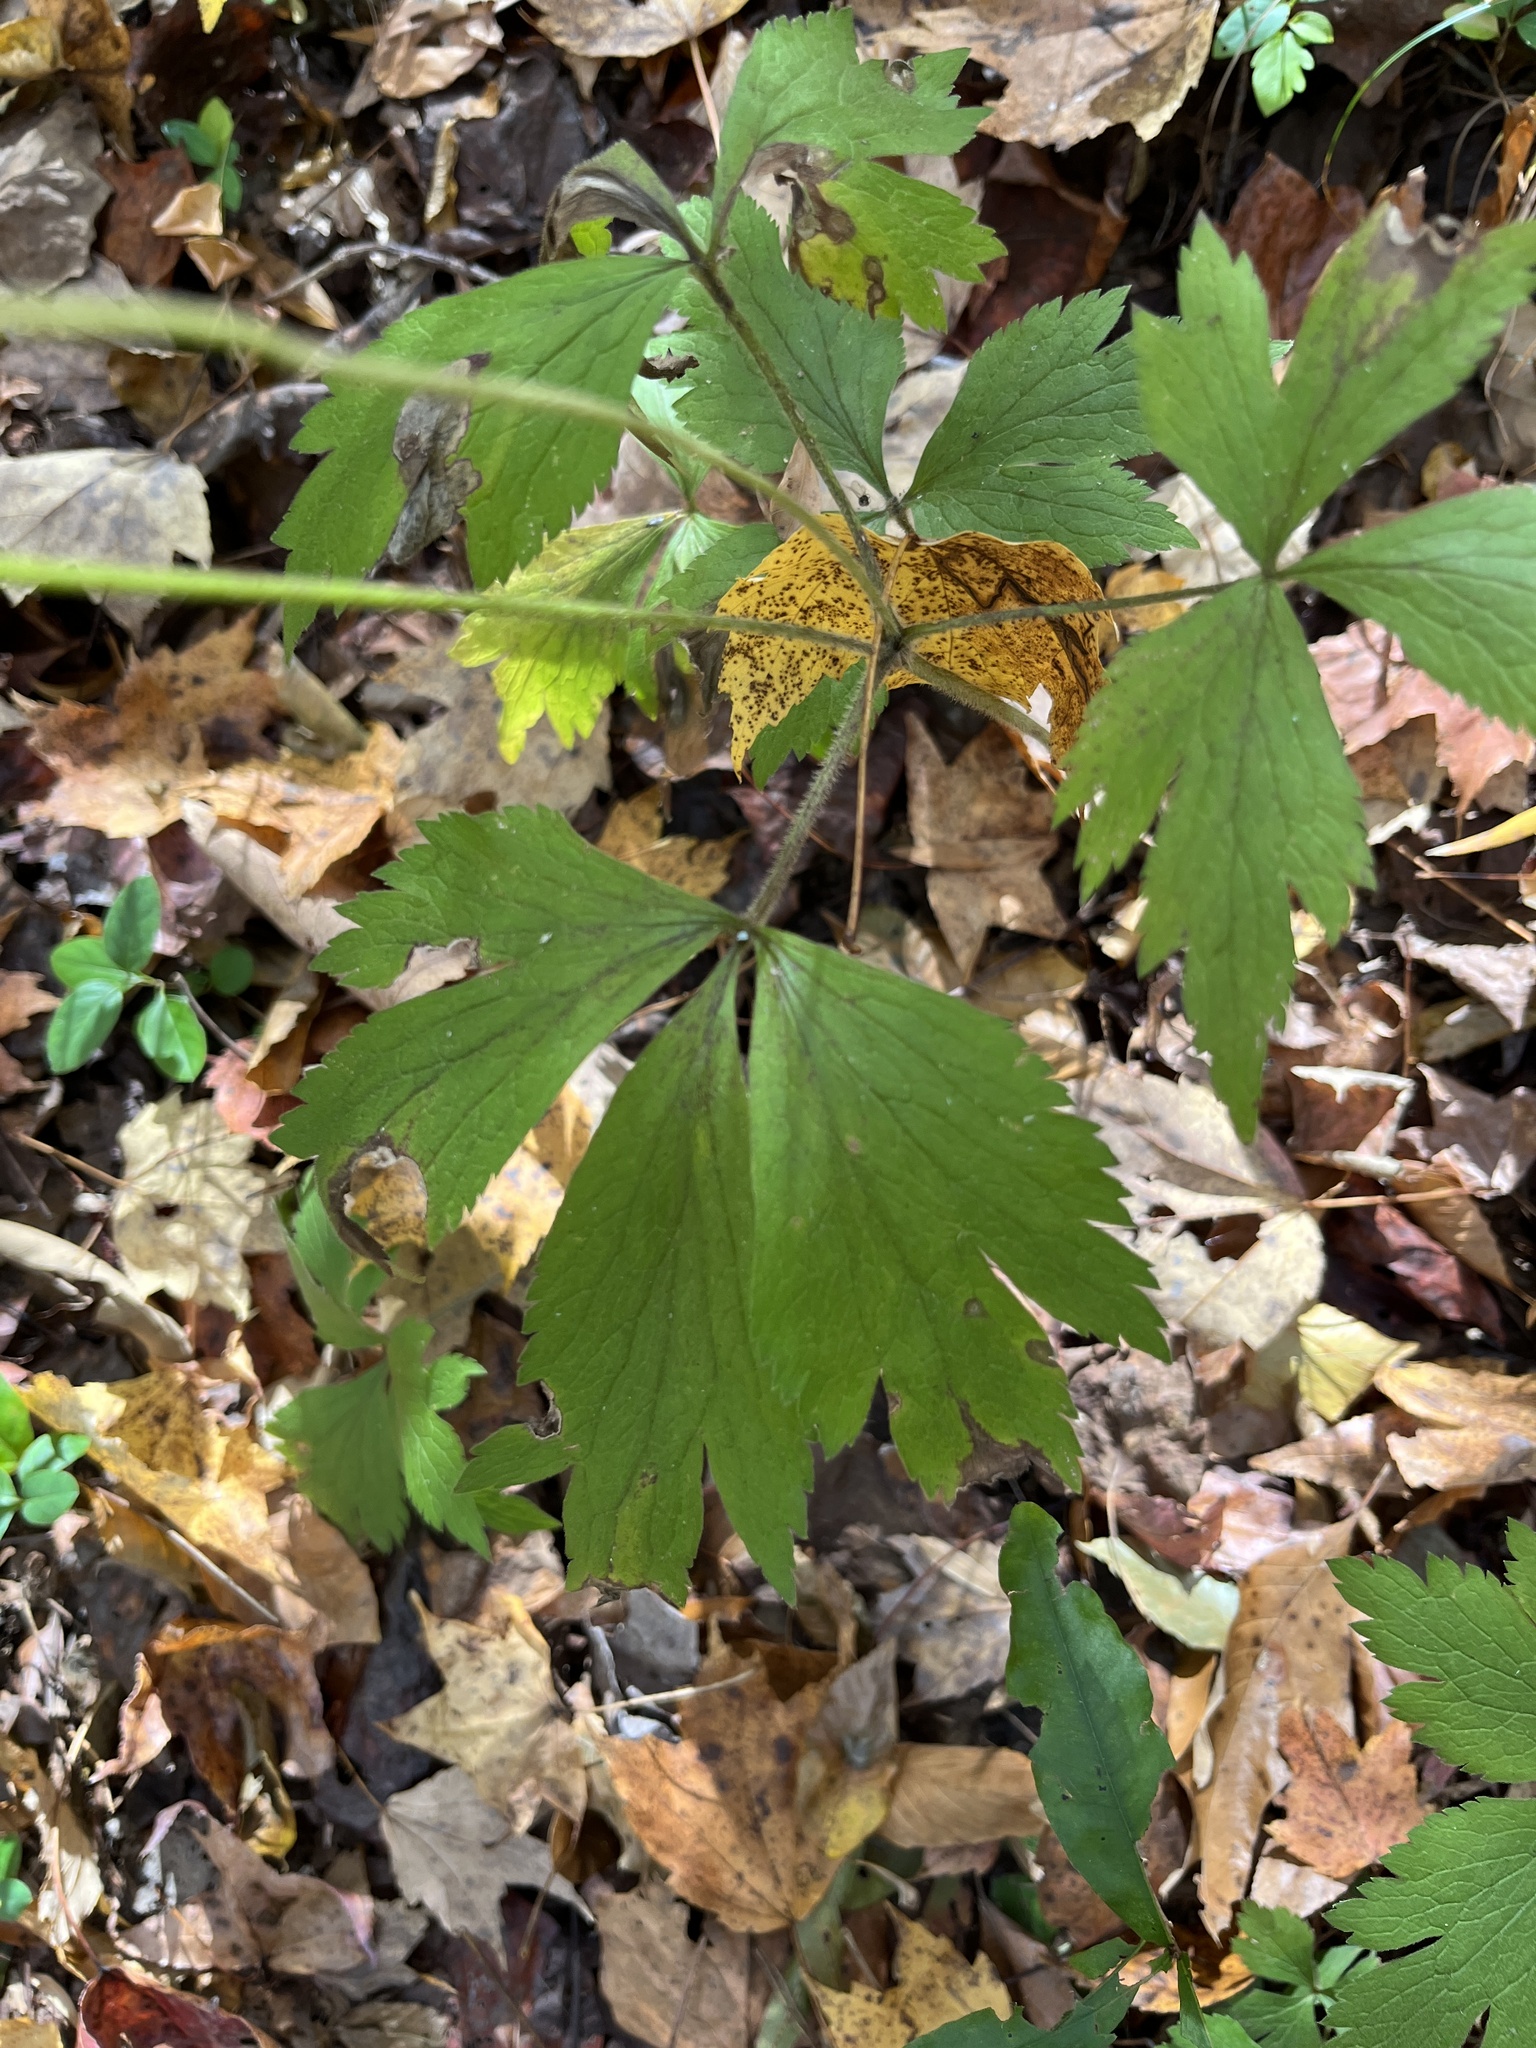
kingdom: Plantae
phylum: Tracheophyta
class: Magnoliopsida
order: Ranunculales
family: Ranunculaceae
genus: Anemone
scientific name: Anemone virginiana
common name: Tall anemone
